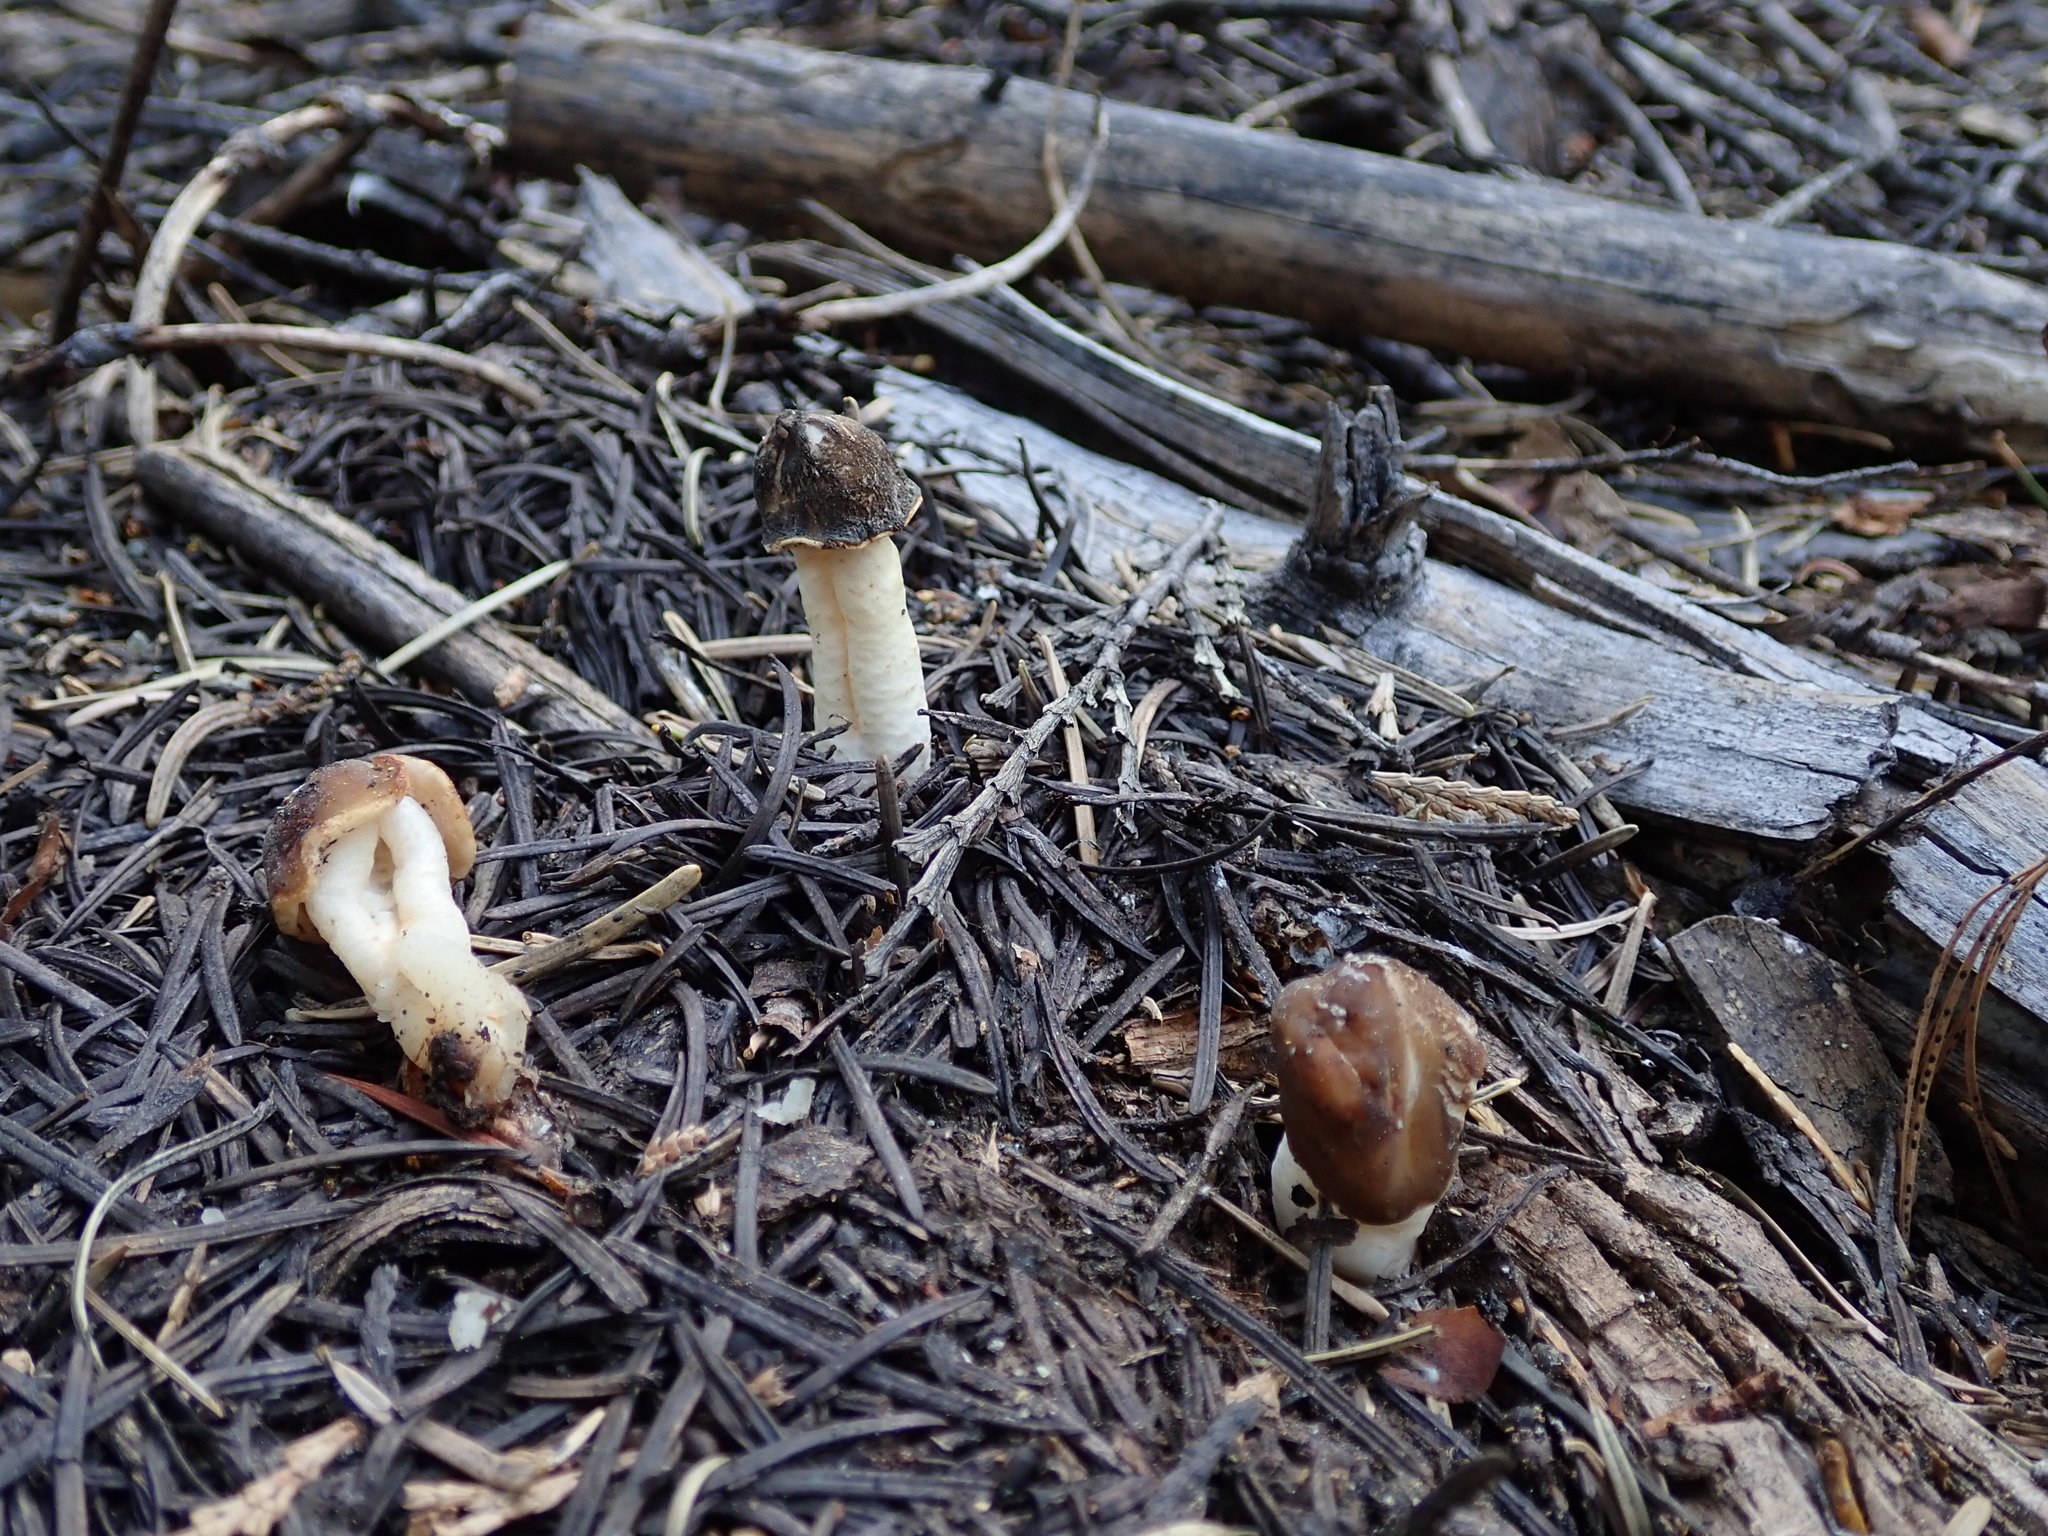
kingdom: Fungi
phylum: Ascomycota
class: Pezizomycetes
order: Pezizales
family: Morchellaceae
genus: Verpa
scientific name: Verpa conica
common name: Thimble morel
